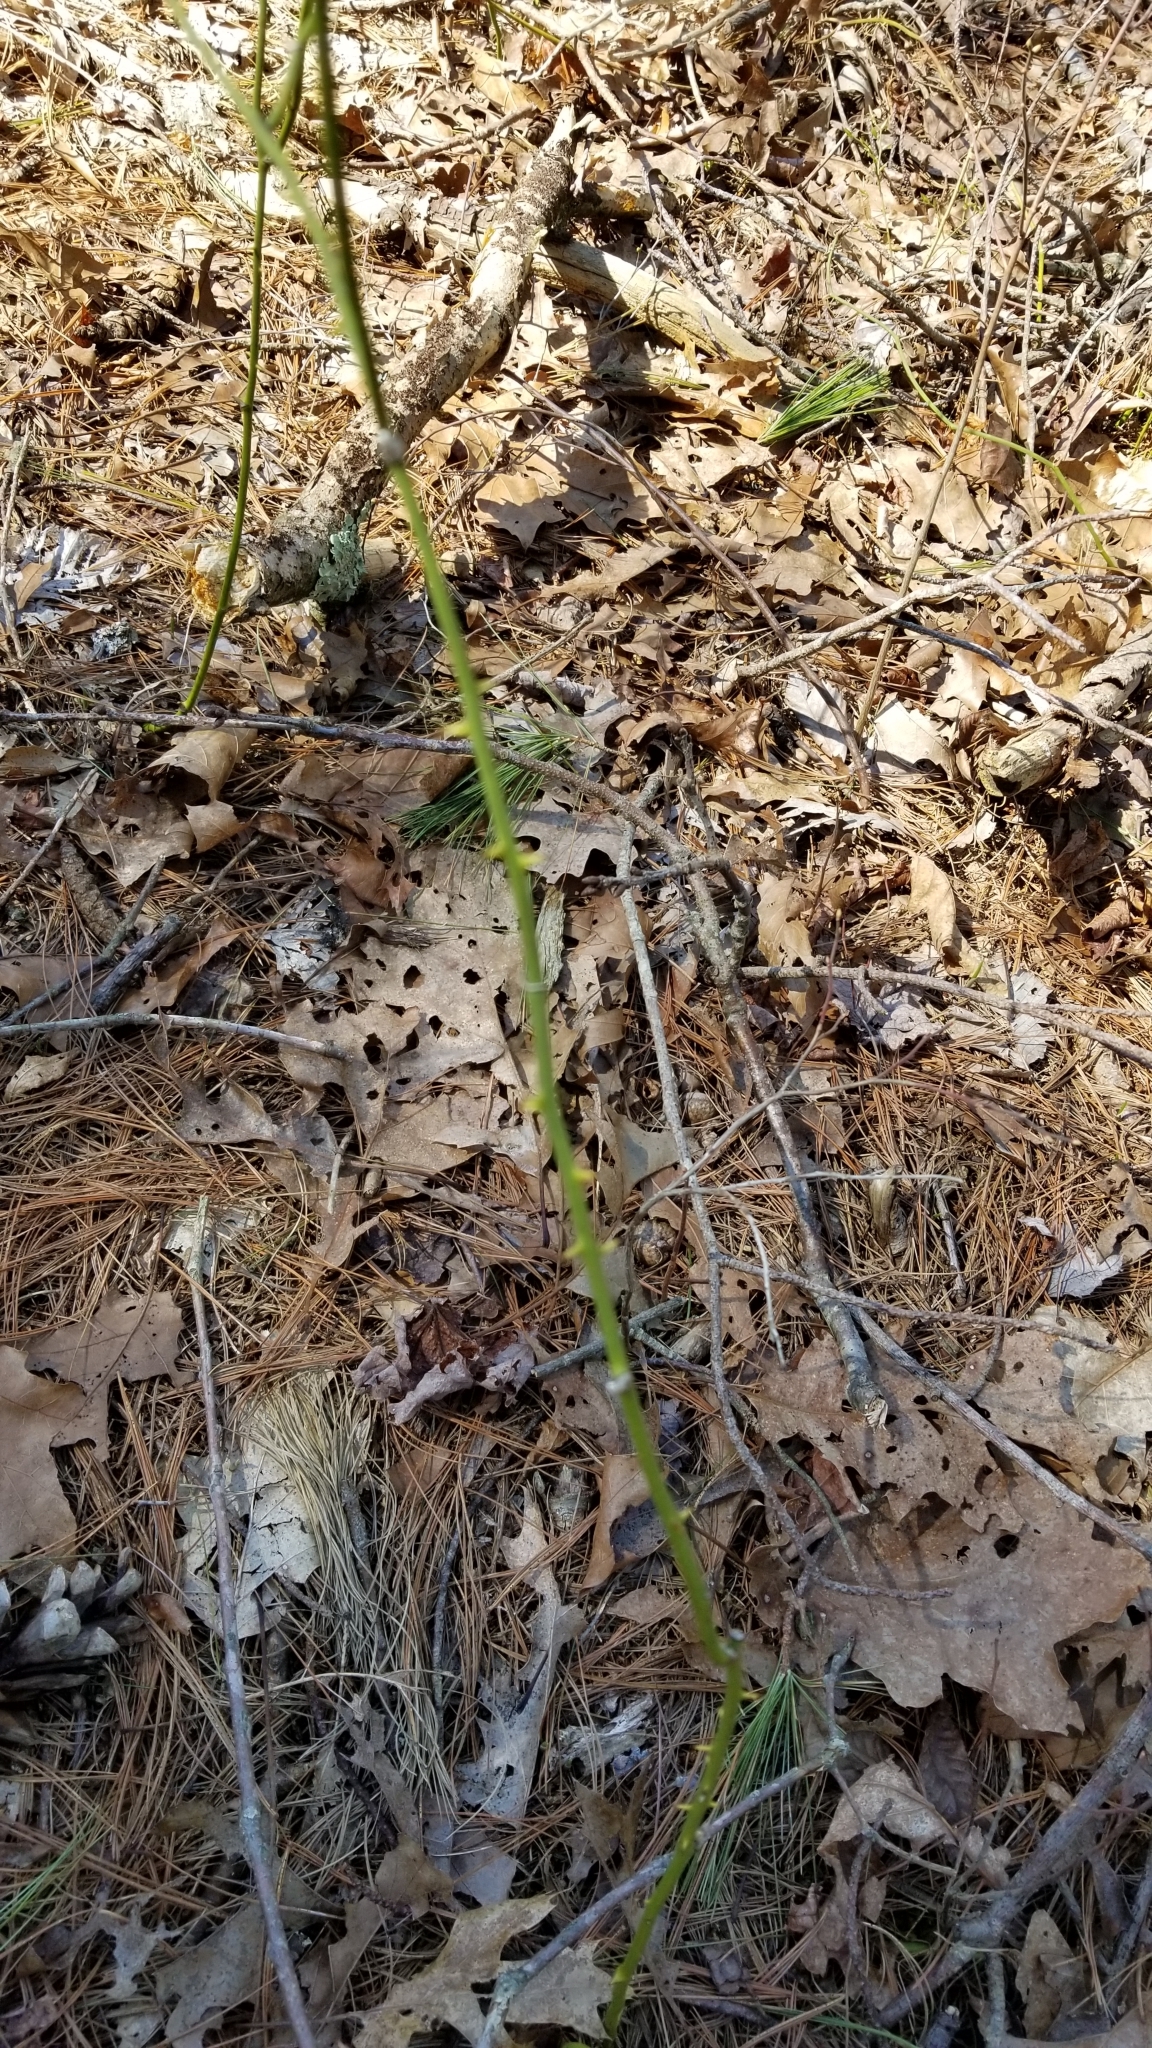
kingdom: Plantae
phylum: Tracheophyta
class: Liliopsida
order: Liliales
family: Smilacaceae
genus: Smilax
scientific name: Smilax rotundifolia
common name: Bullbriar
